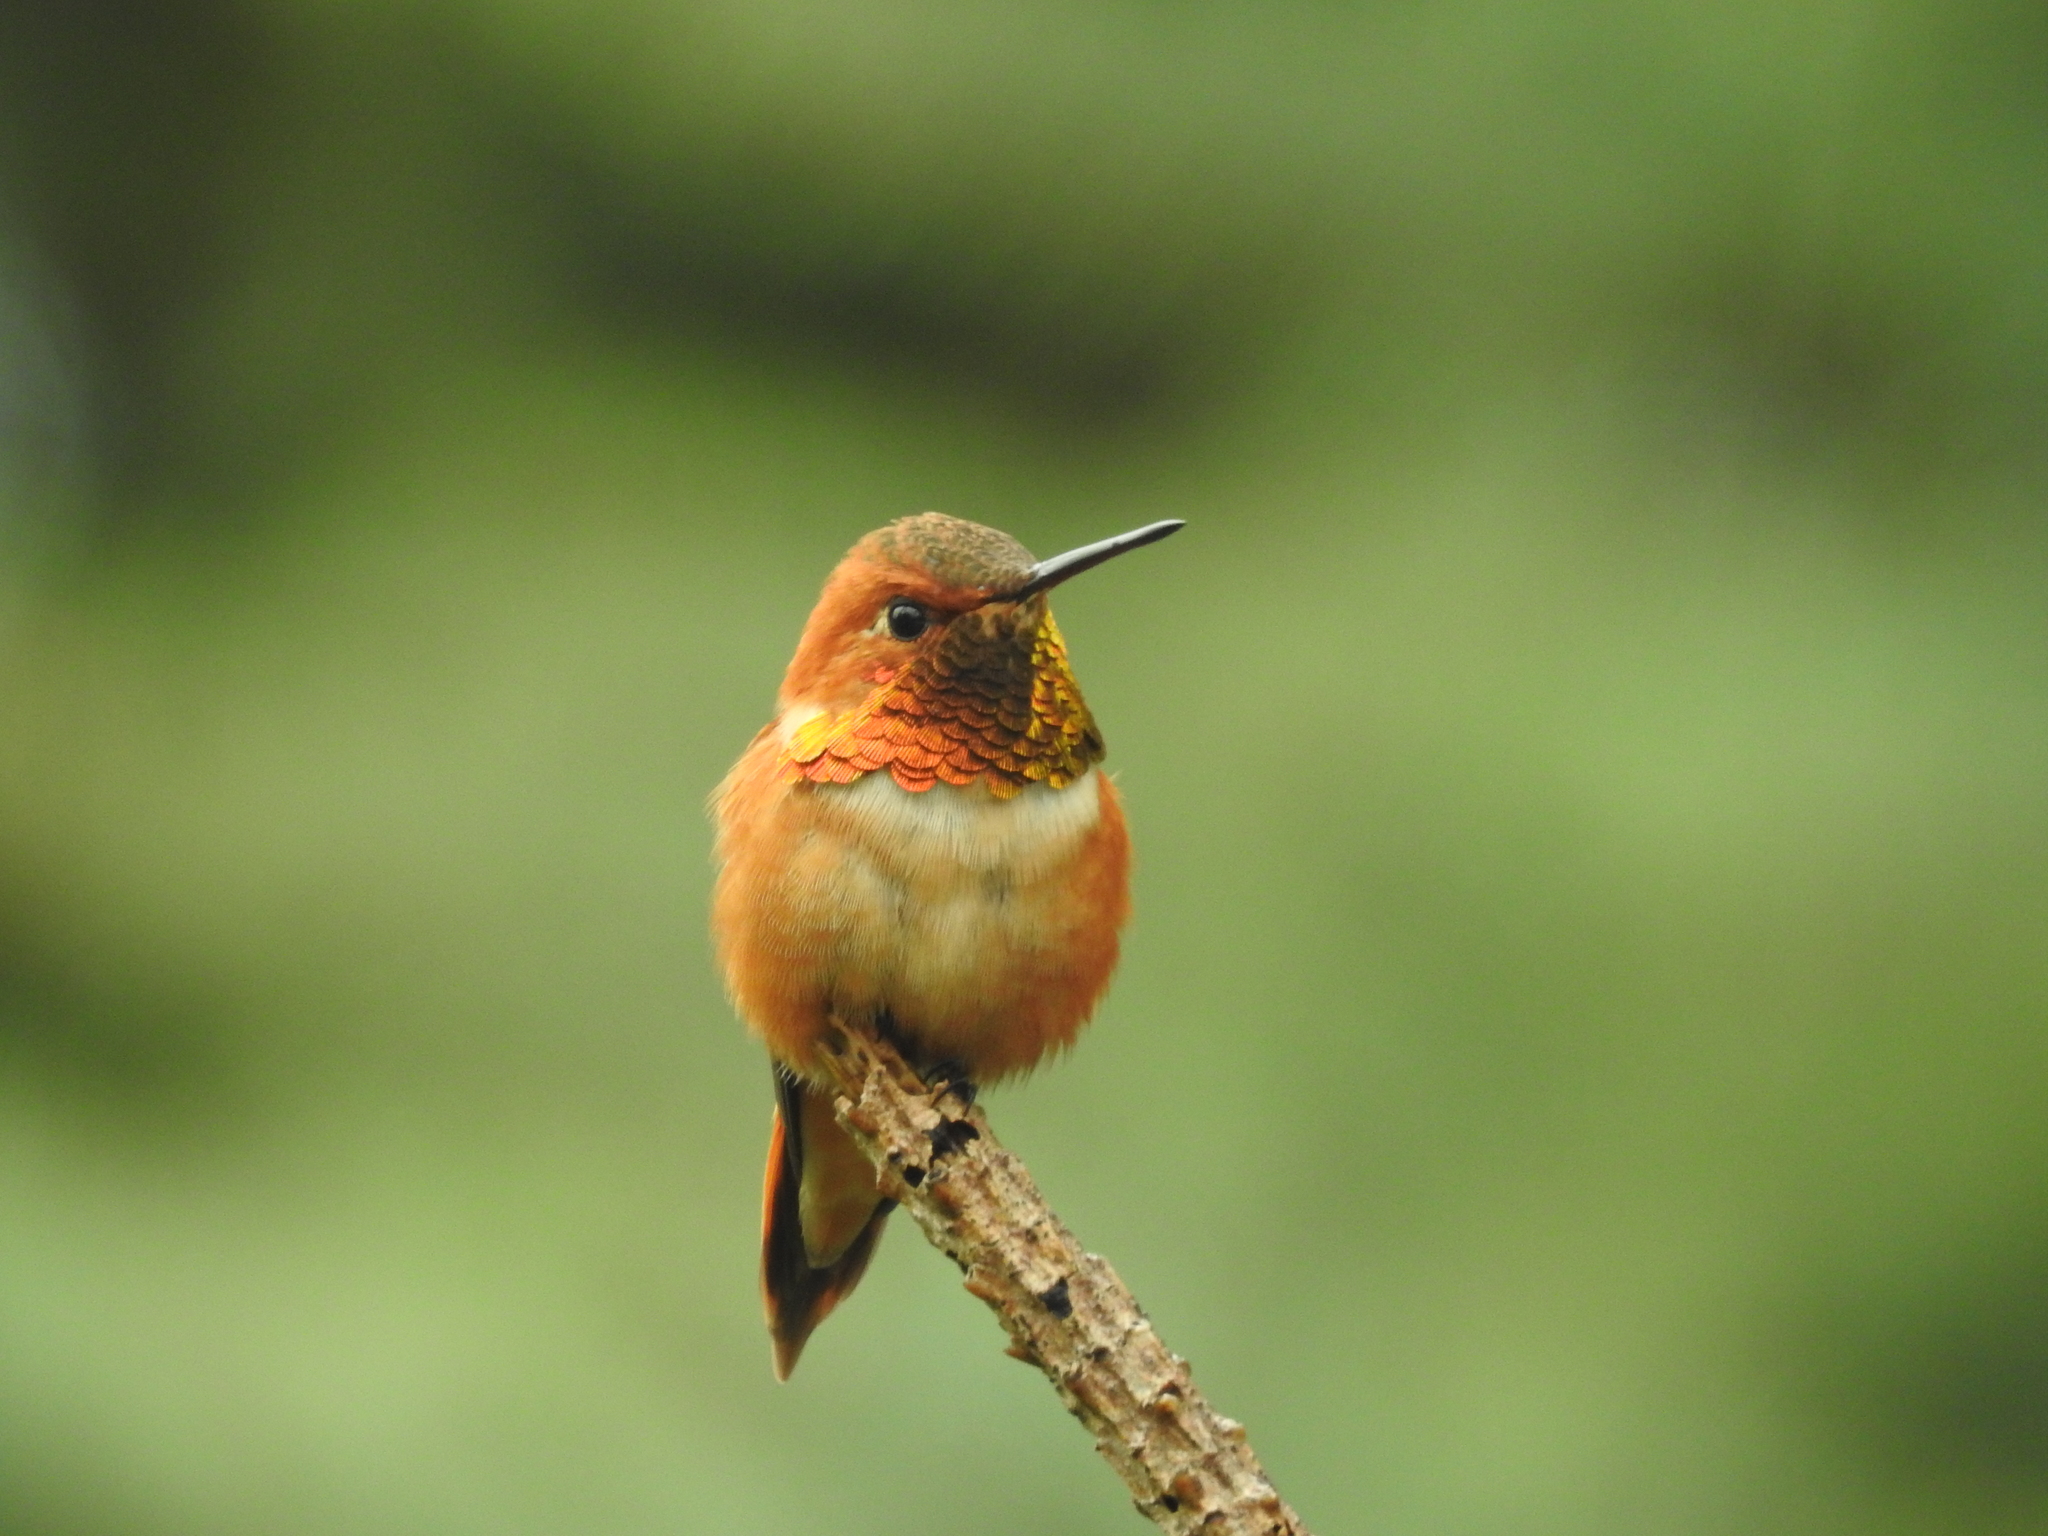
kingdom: Animalia
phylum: Chordata
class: Aves
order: Apodiformes
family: Trochilidae
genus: Selasphorus
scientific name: Selasphorus rufus
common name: Rufous hummingbird
